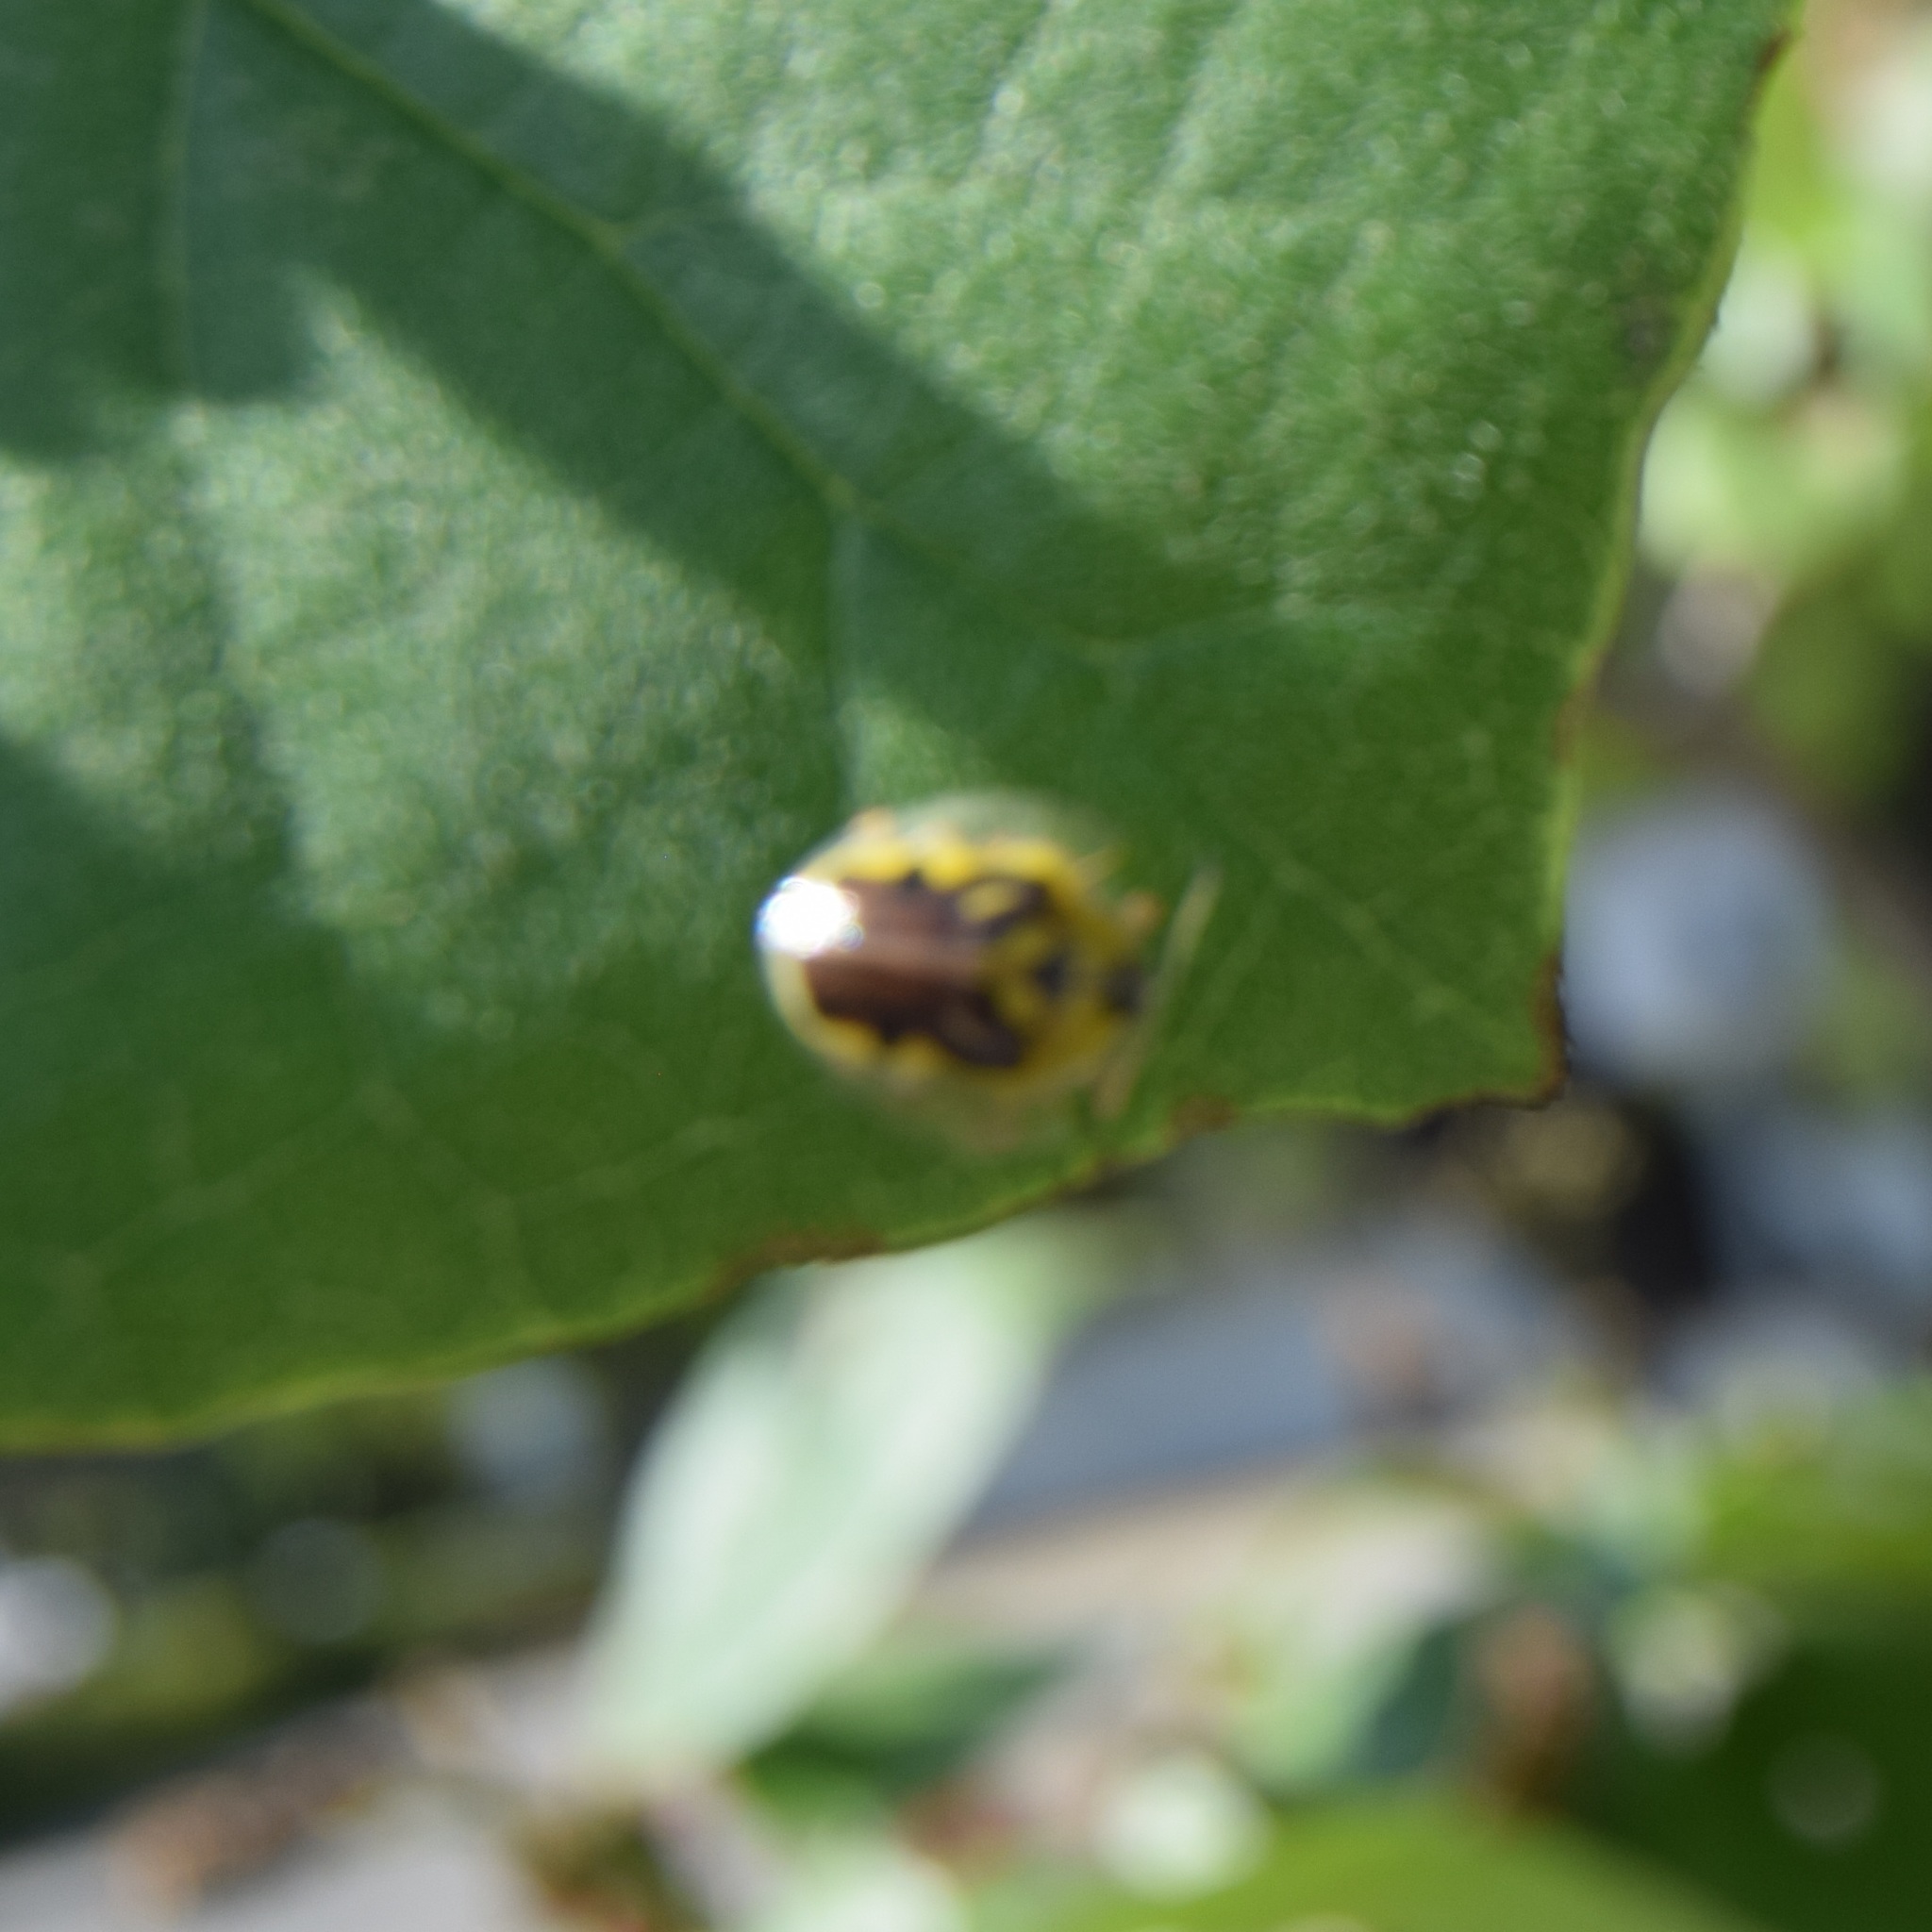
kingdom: Animalia
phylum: Arthropoda
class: Insecta
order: Coleoptera
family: Chrysomelidae
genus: Eurypepla
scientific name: Eurypepla calochroma
